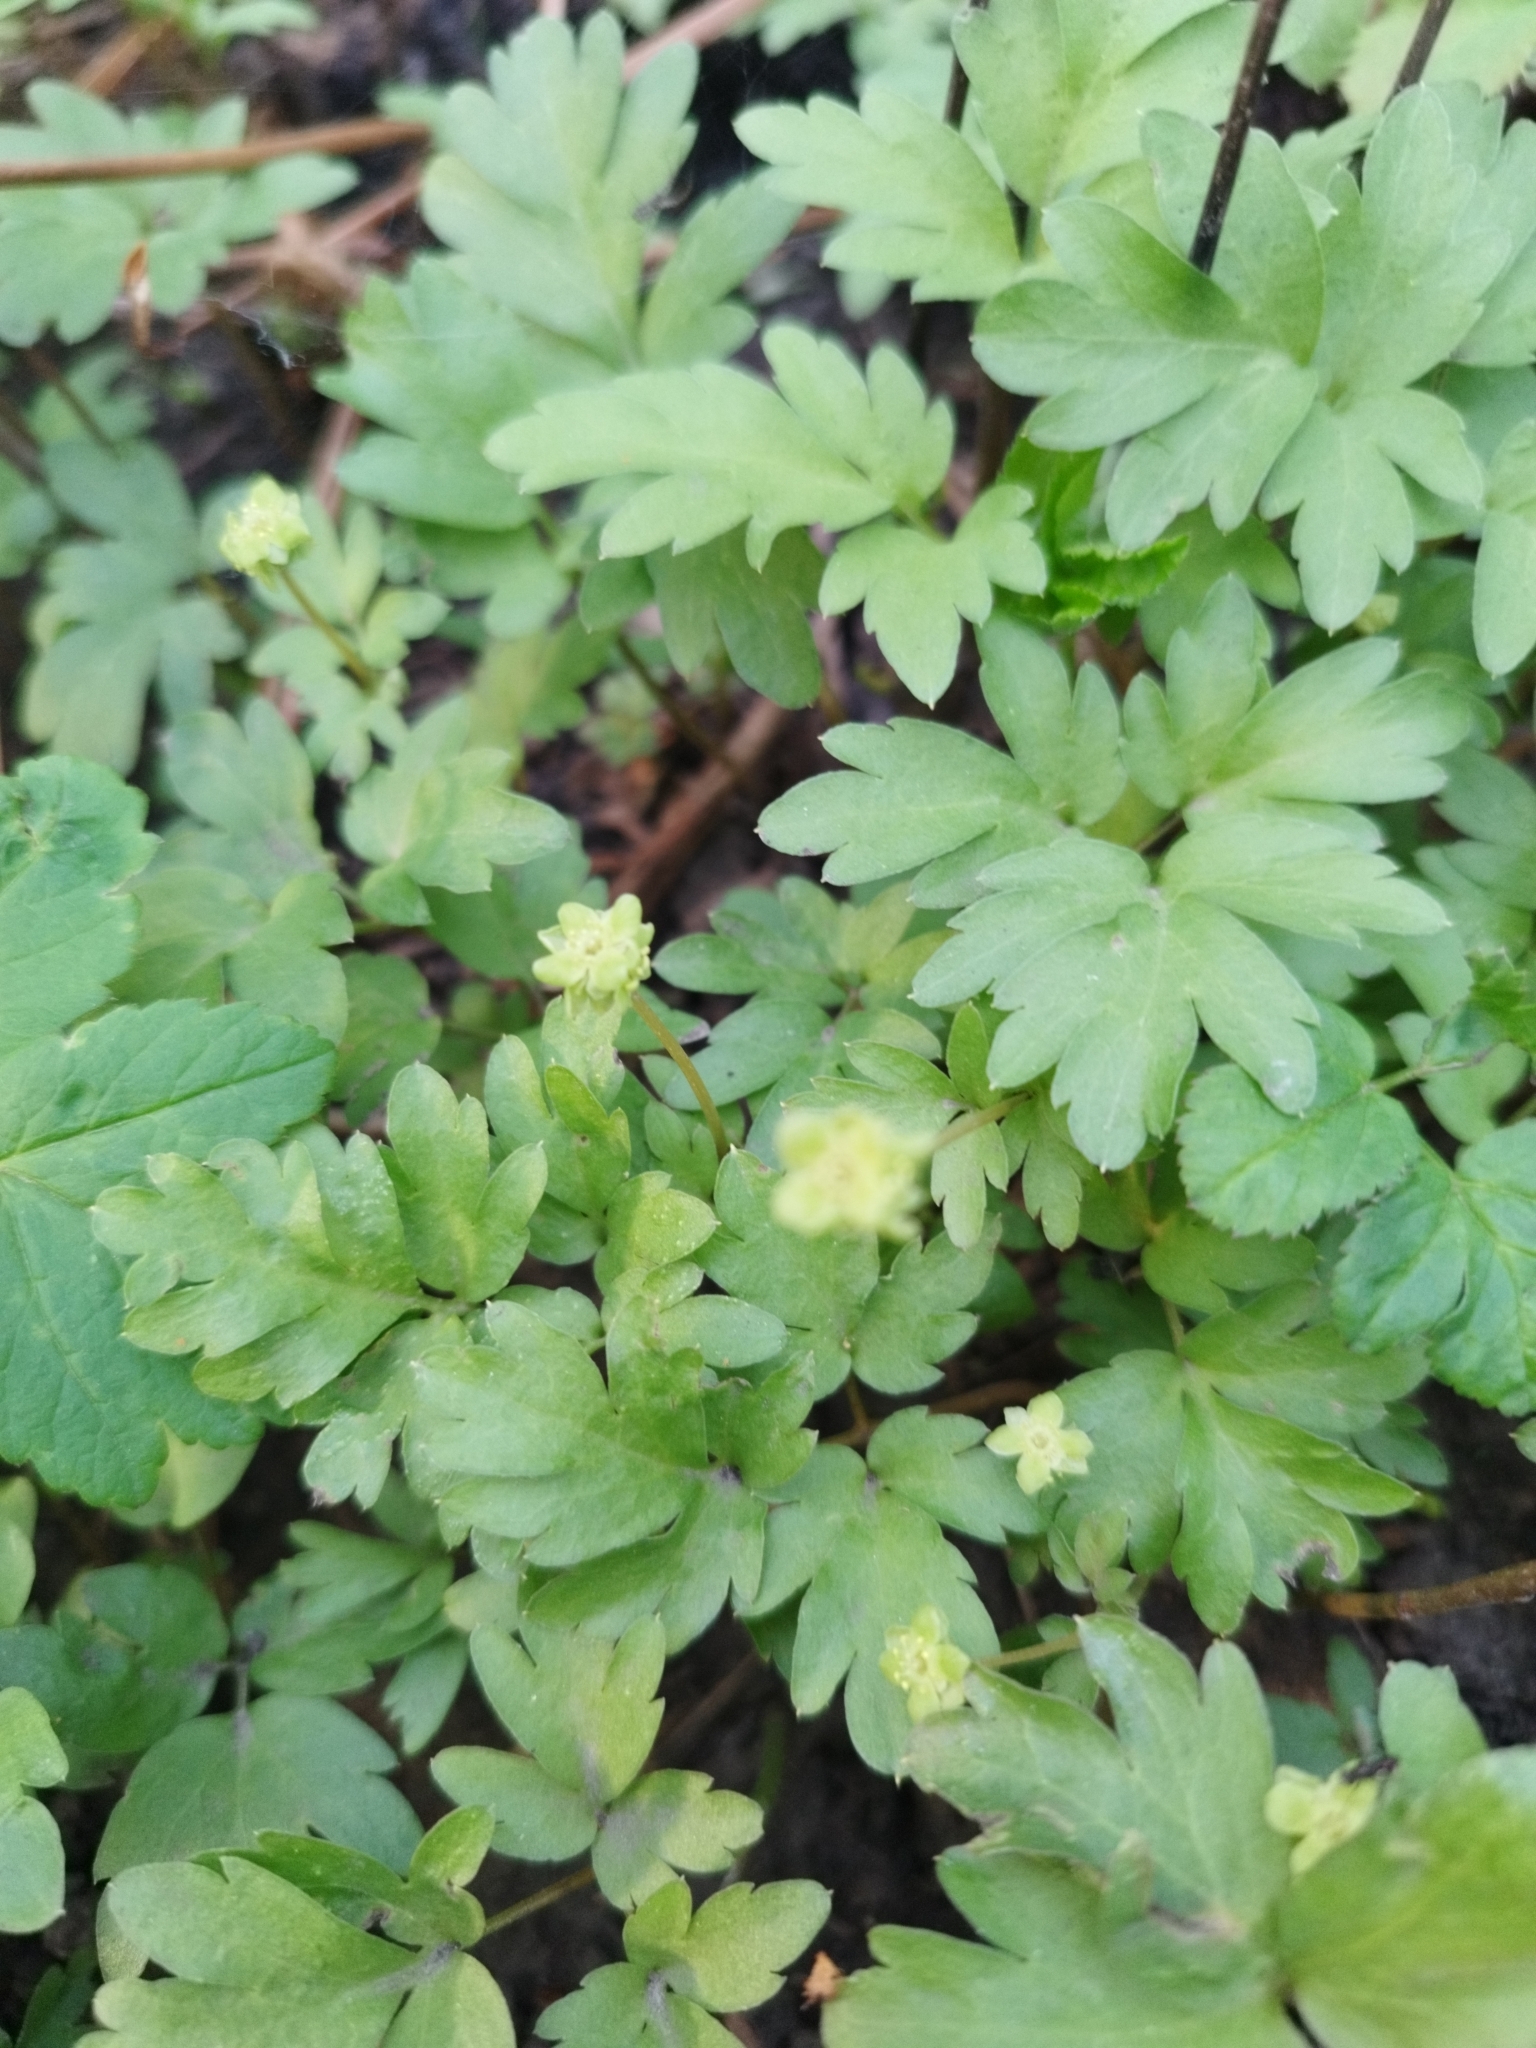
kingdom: Plantae
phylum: Tracheophyta
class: Magnoliopsida
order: Dipsacales
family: Viburnaceae
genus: Adoxa
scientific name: Adoxa moschatellina
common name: Moschatel
